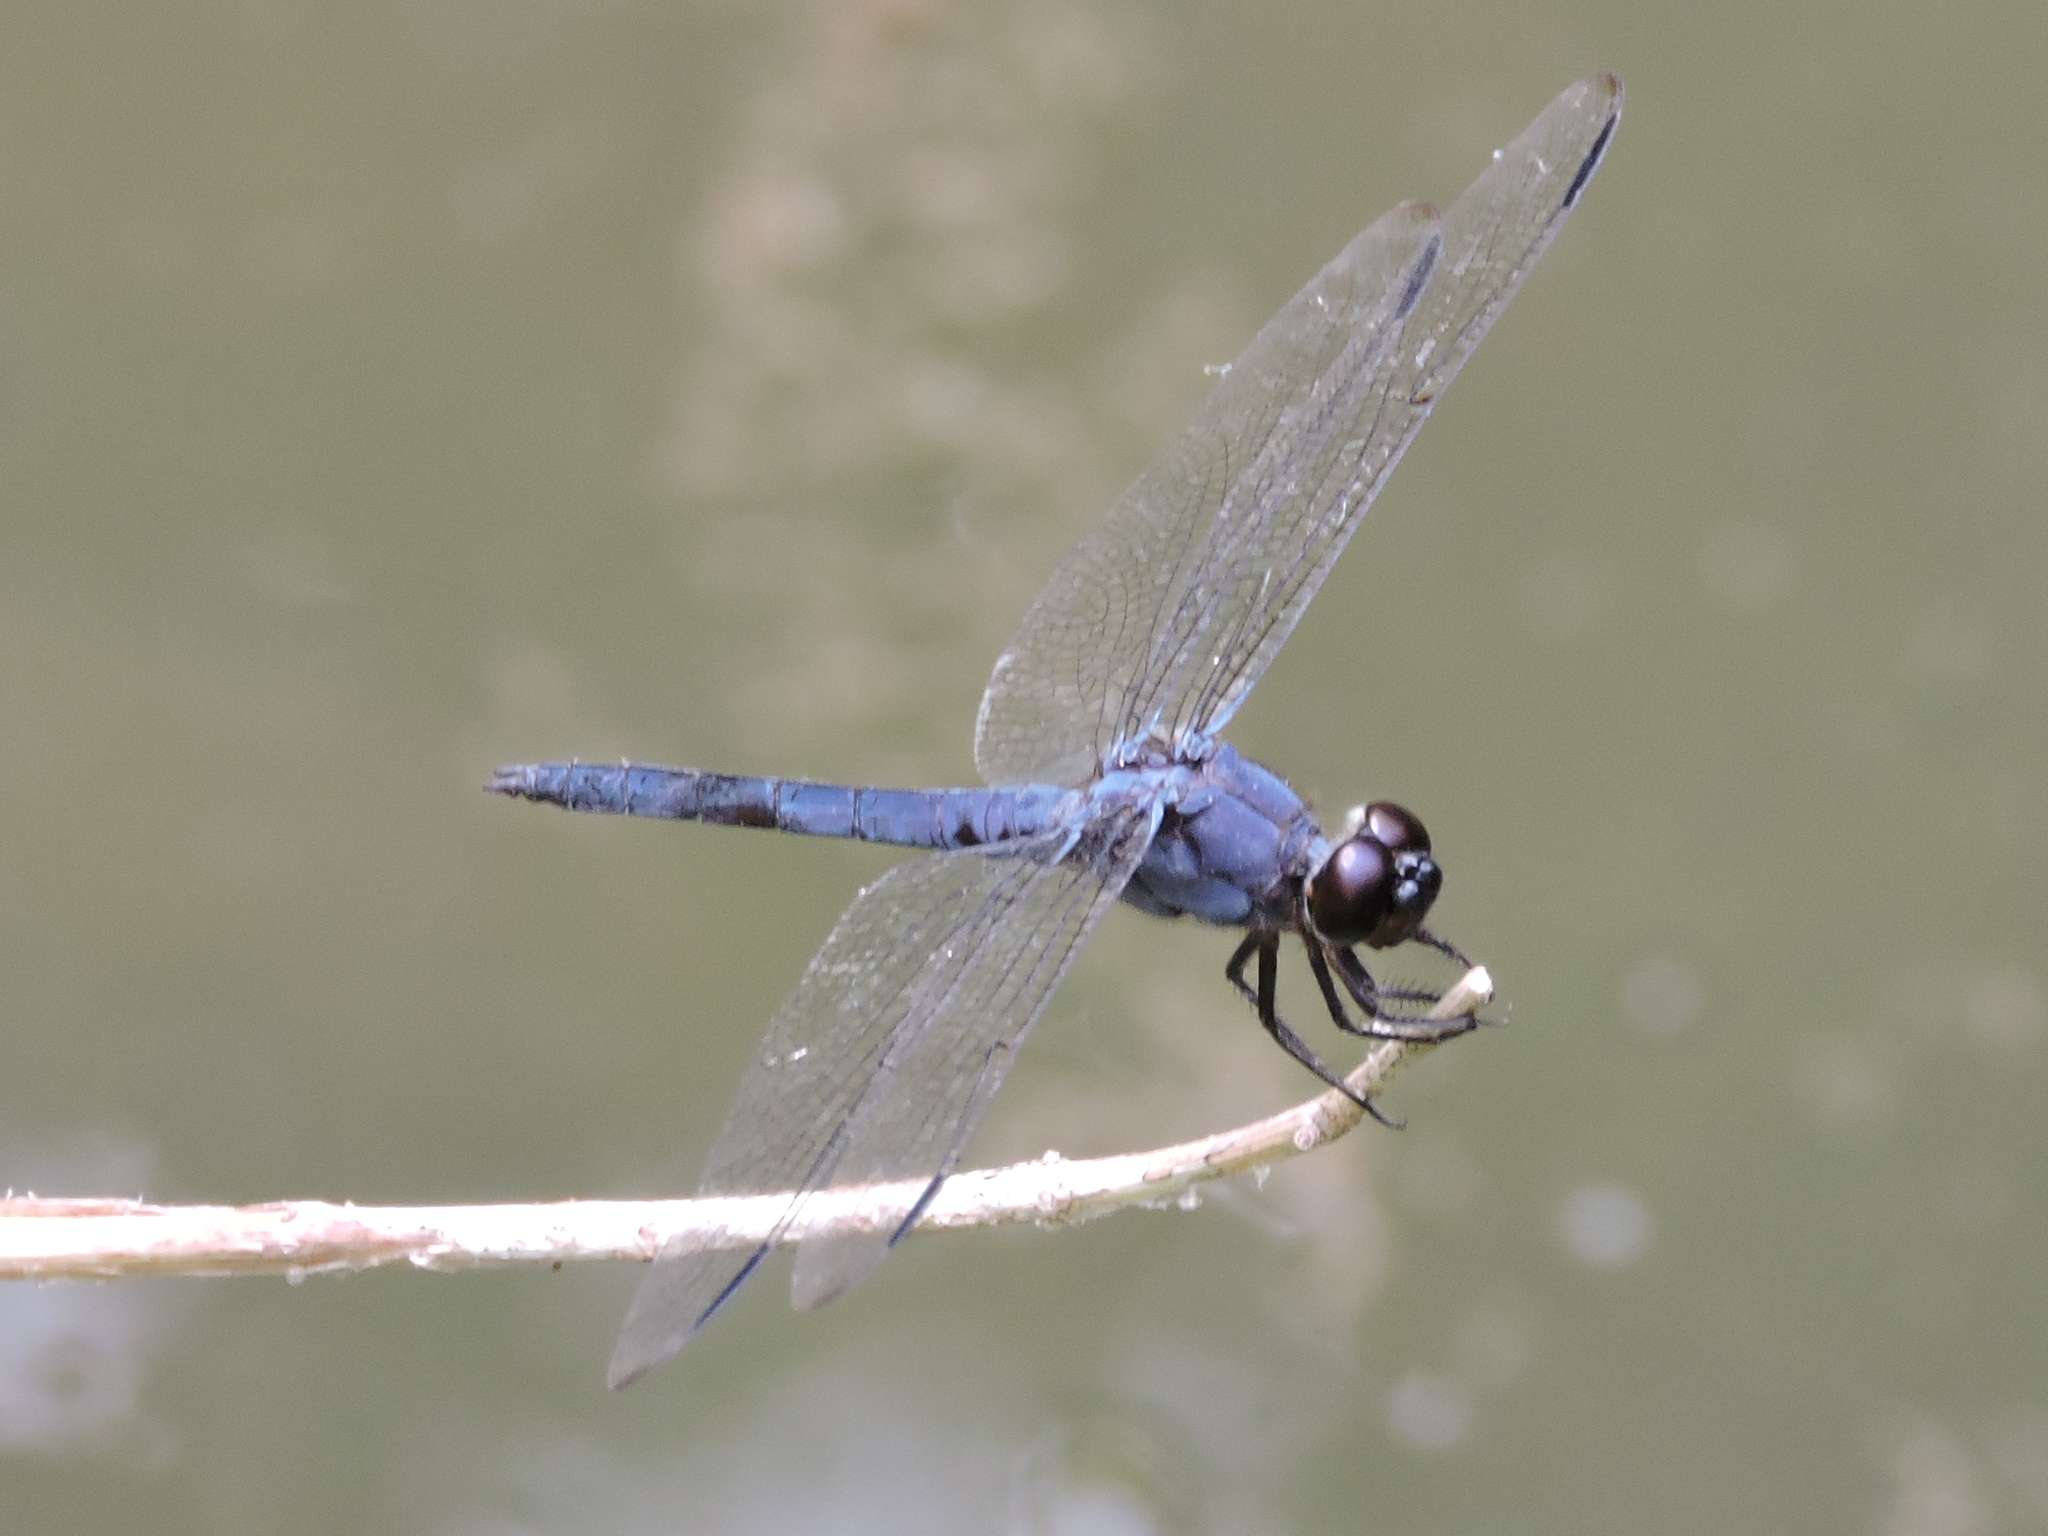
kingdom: Animalia
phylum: Arthropoda
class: Insecta
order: Odonata
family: Libellulidae
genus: Libellula
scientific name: Libellula incesta
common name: Slaty skimmer
